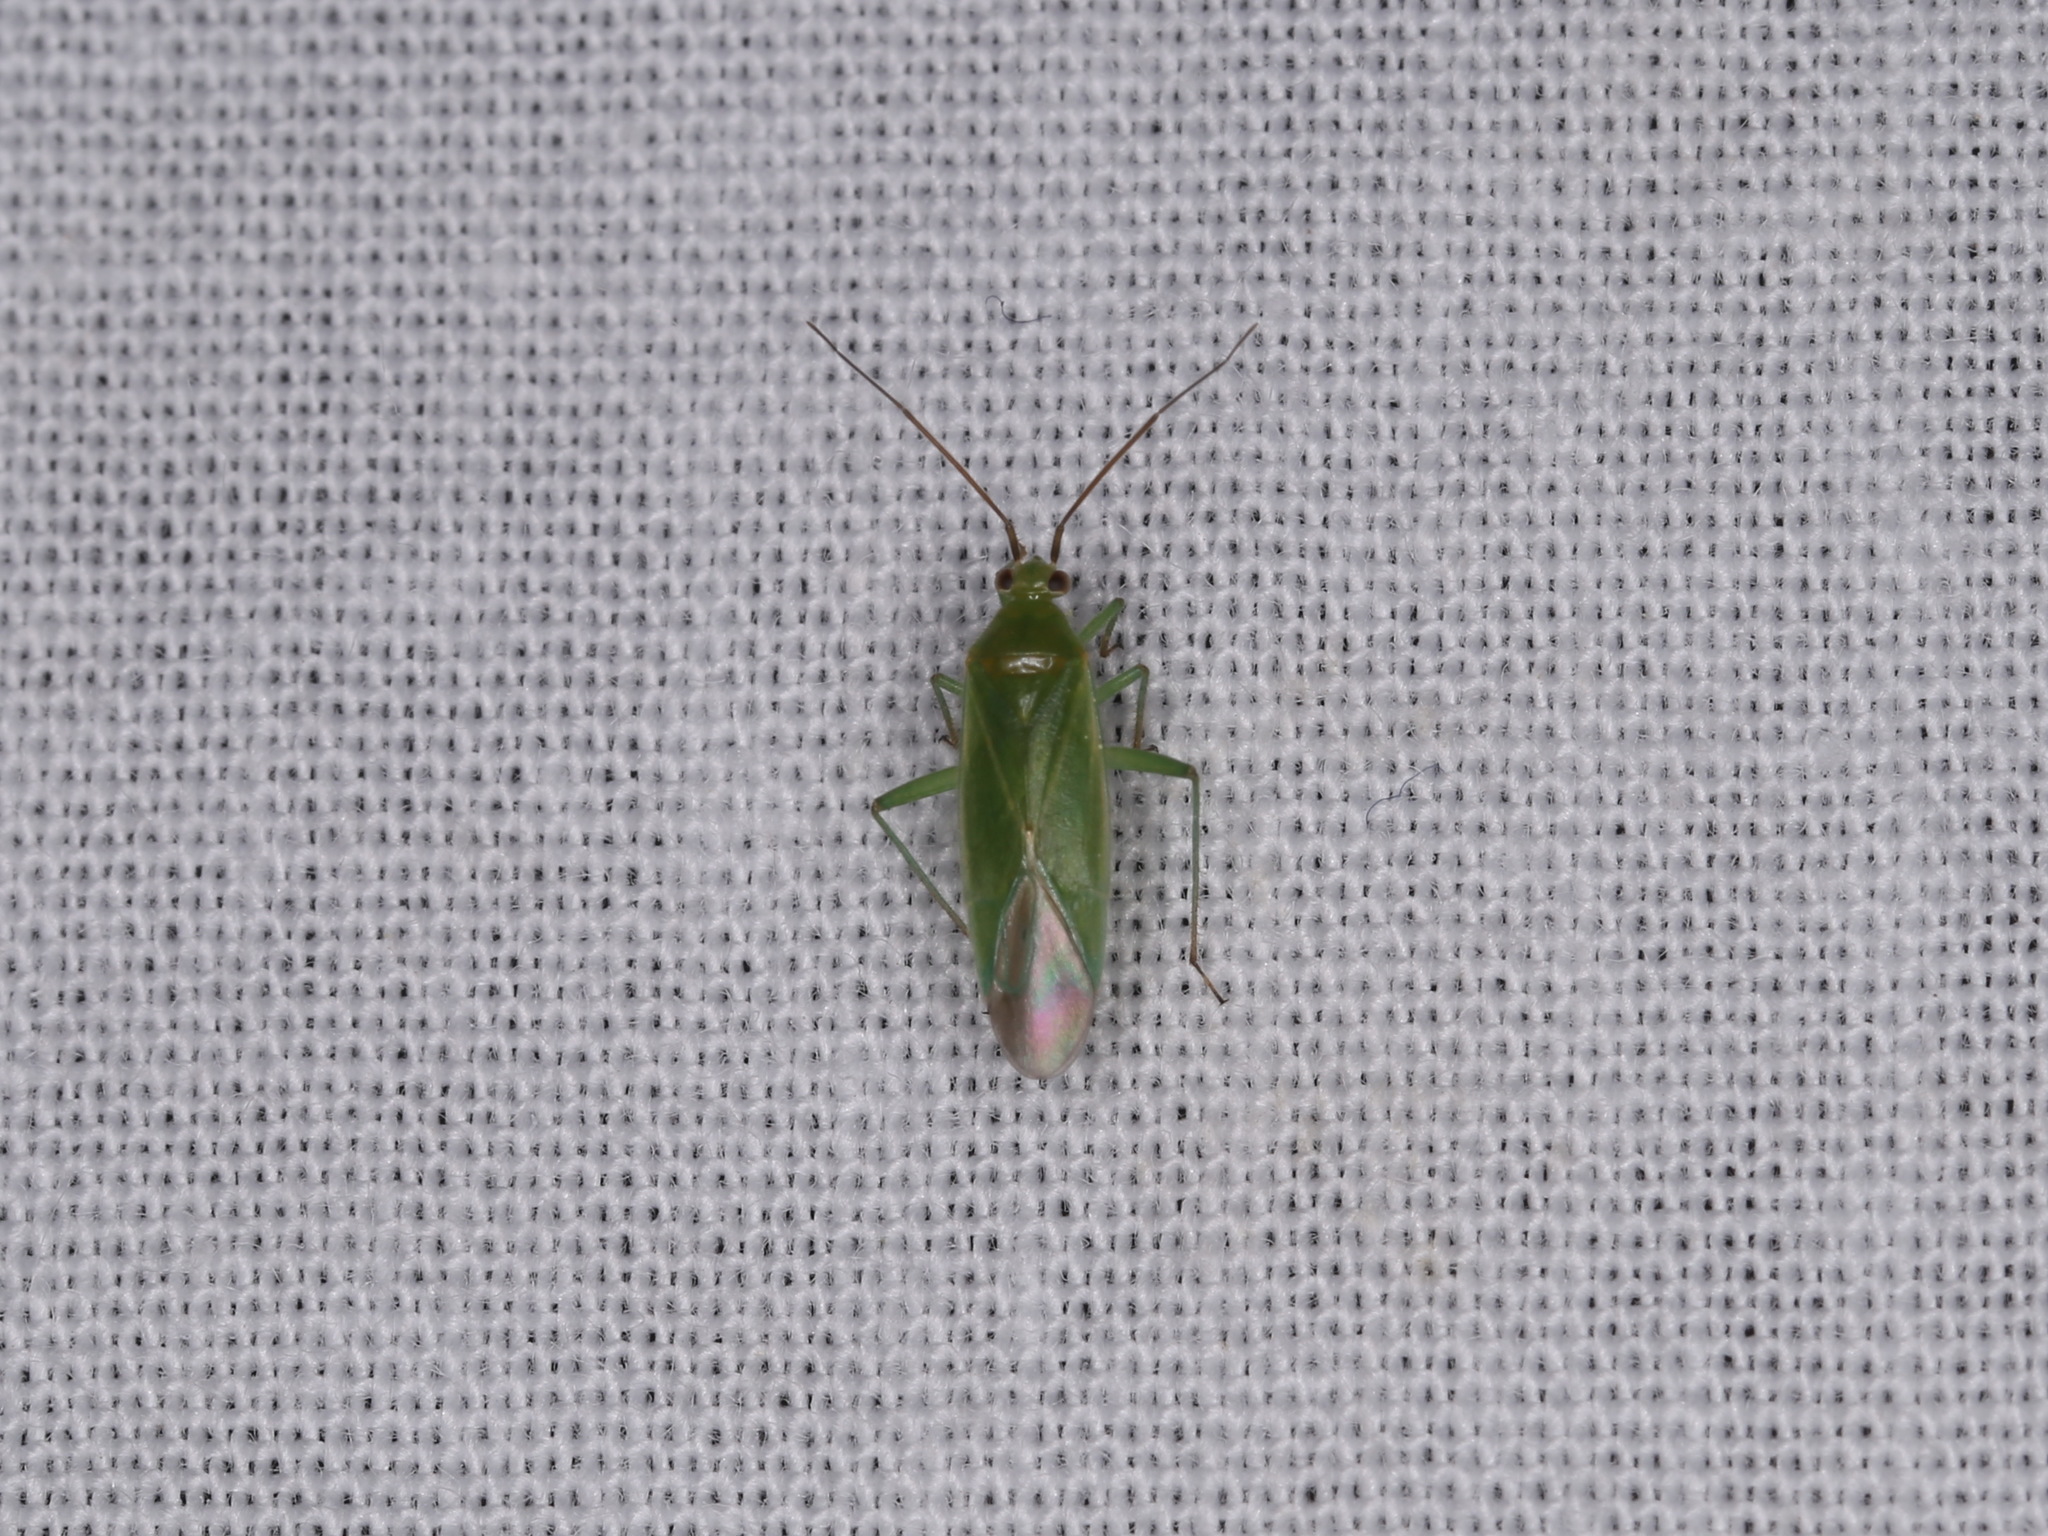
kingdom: Animalia
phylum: Arthropoda
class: Insecta
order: Hemiptera
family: Miridae
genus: Orthotylus
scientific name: Orthotylus marginalis
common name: Dark green apple capsid
